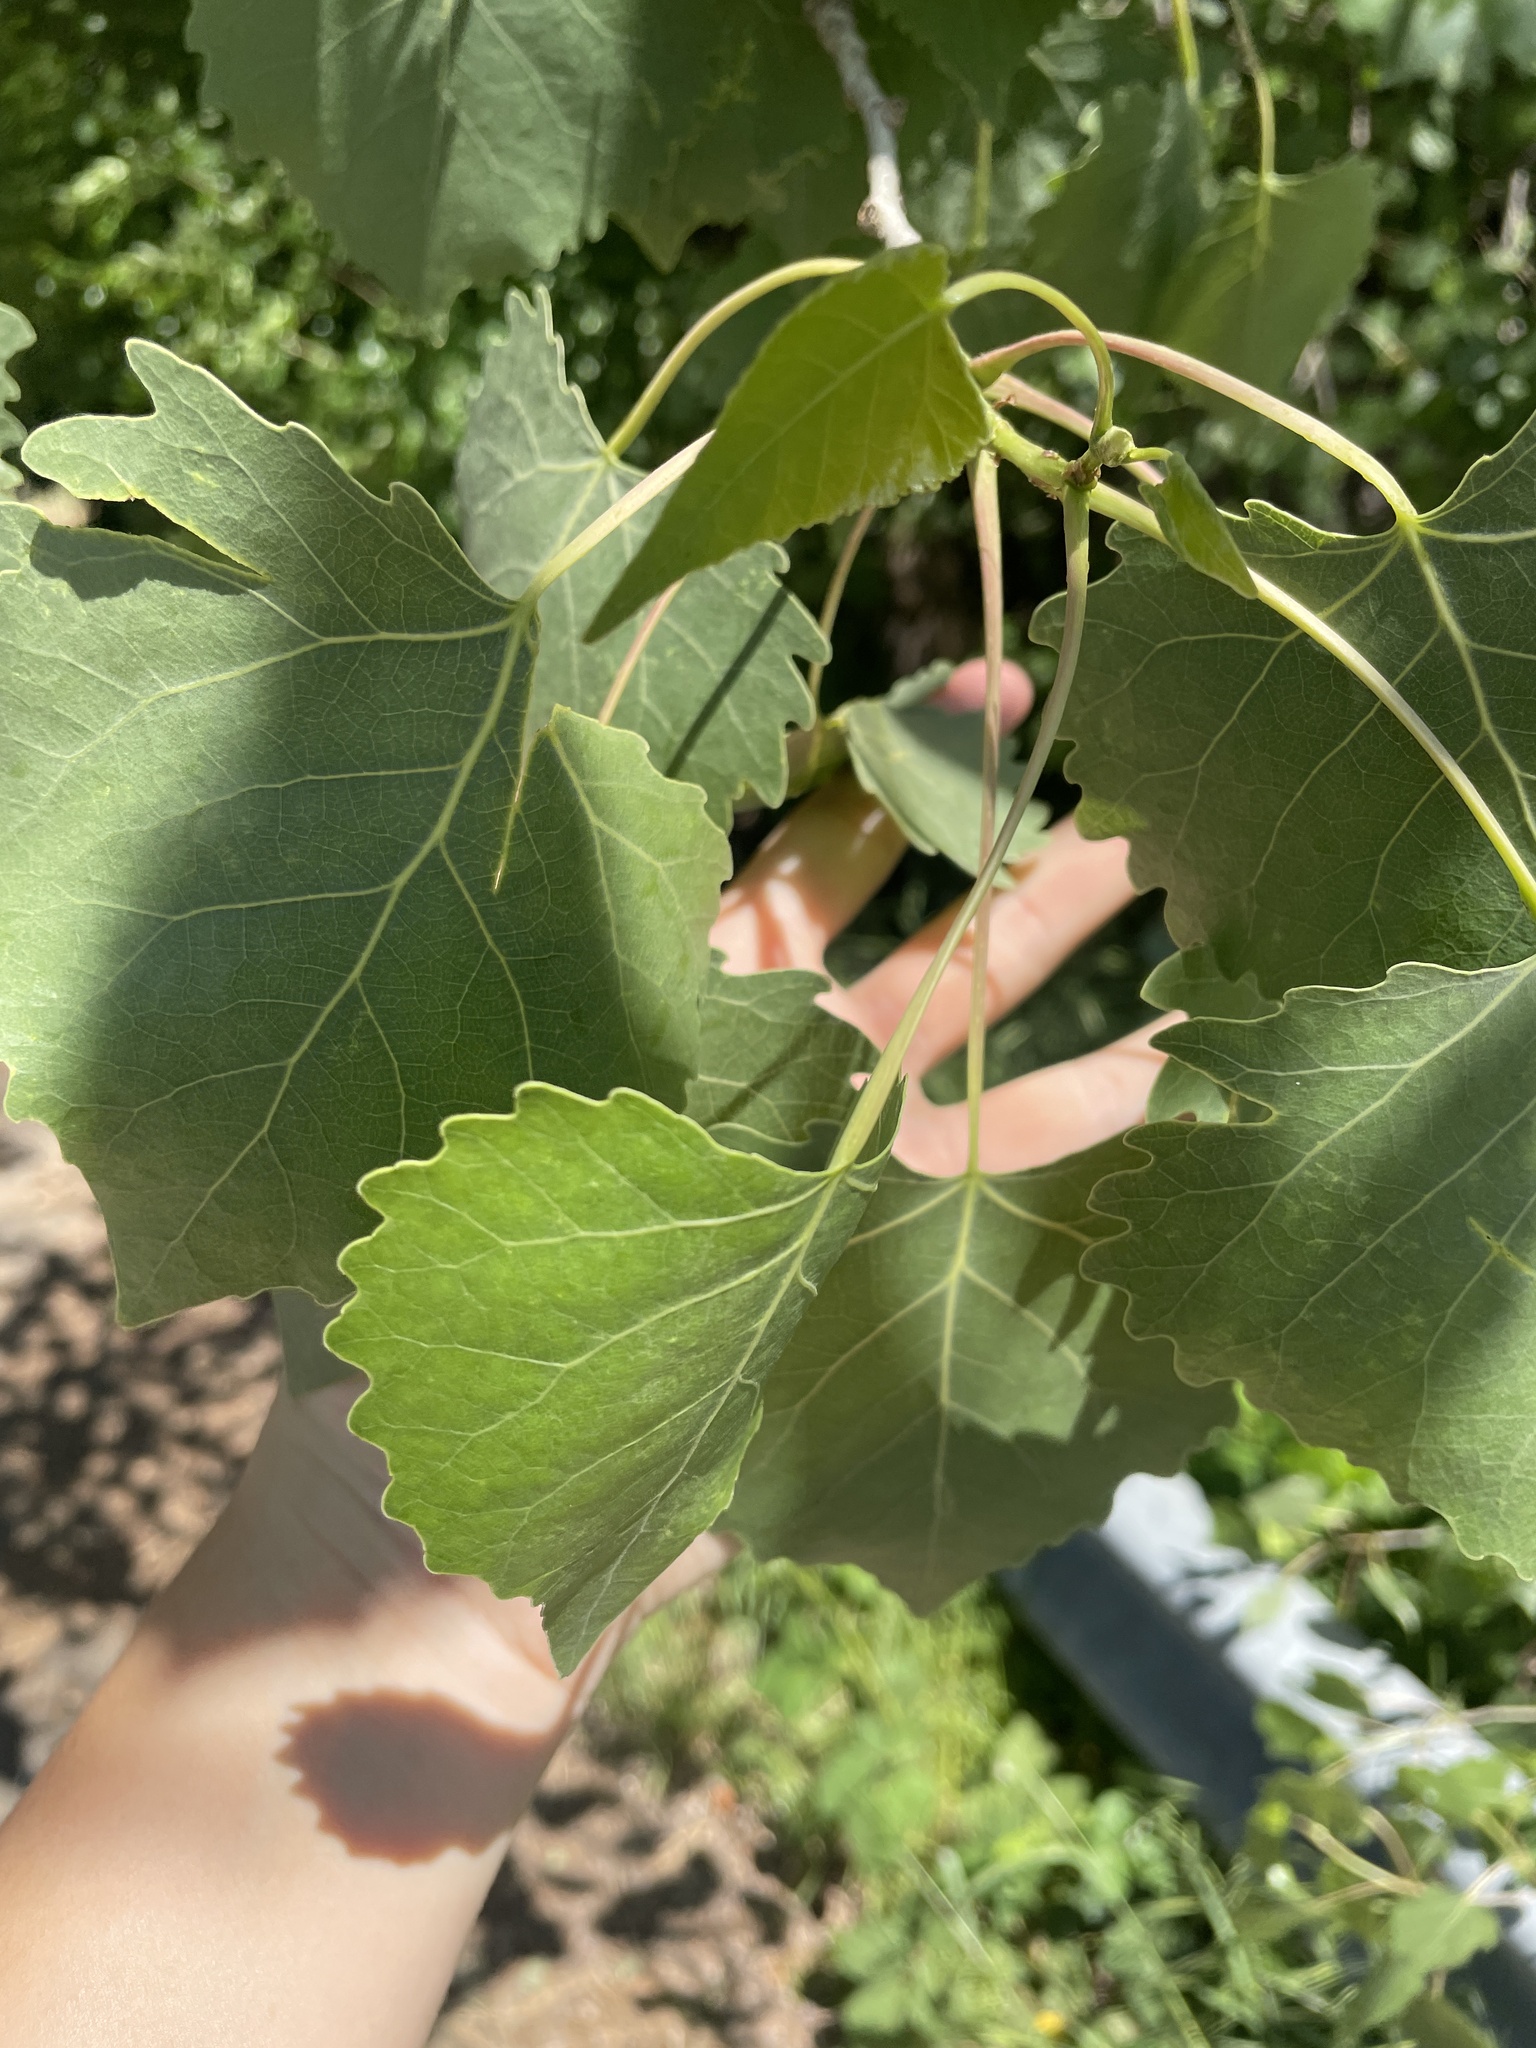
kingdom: Plantae
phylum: Tracheophyta
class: Magnoliopsida
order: Malpighiales
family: Salicaceae
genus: Populus
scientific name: Populus fremontii
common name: Fremont's cottonwood
